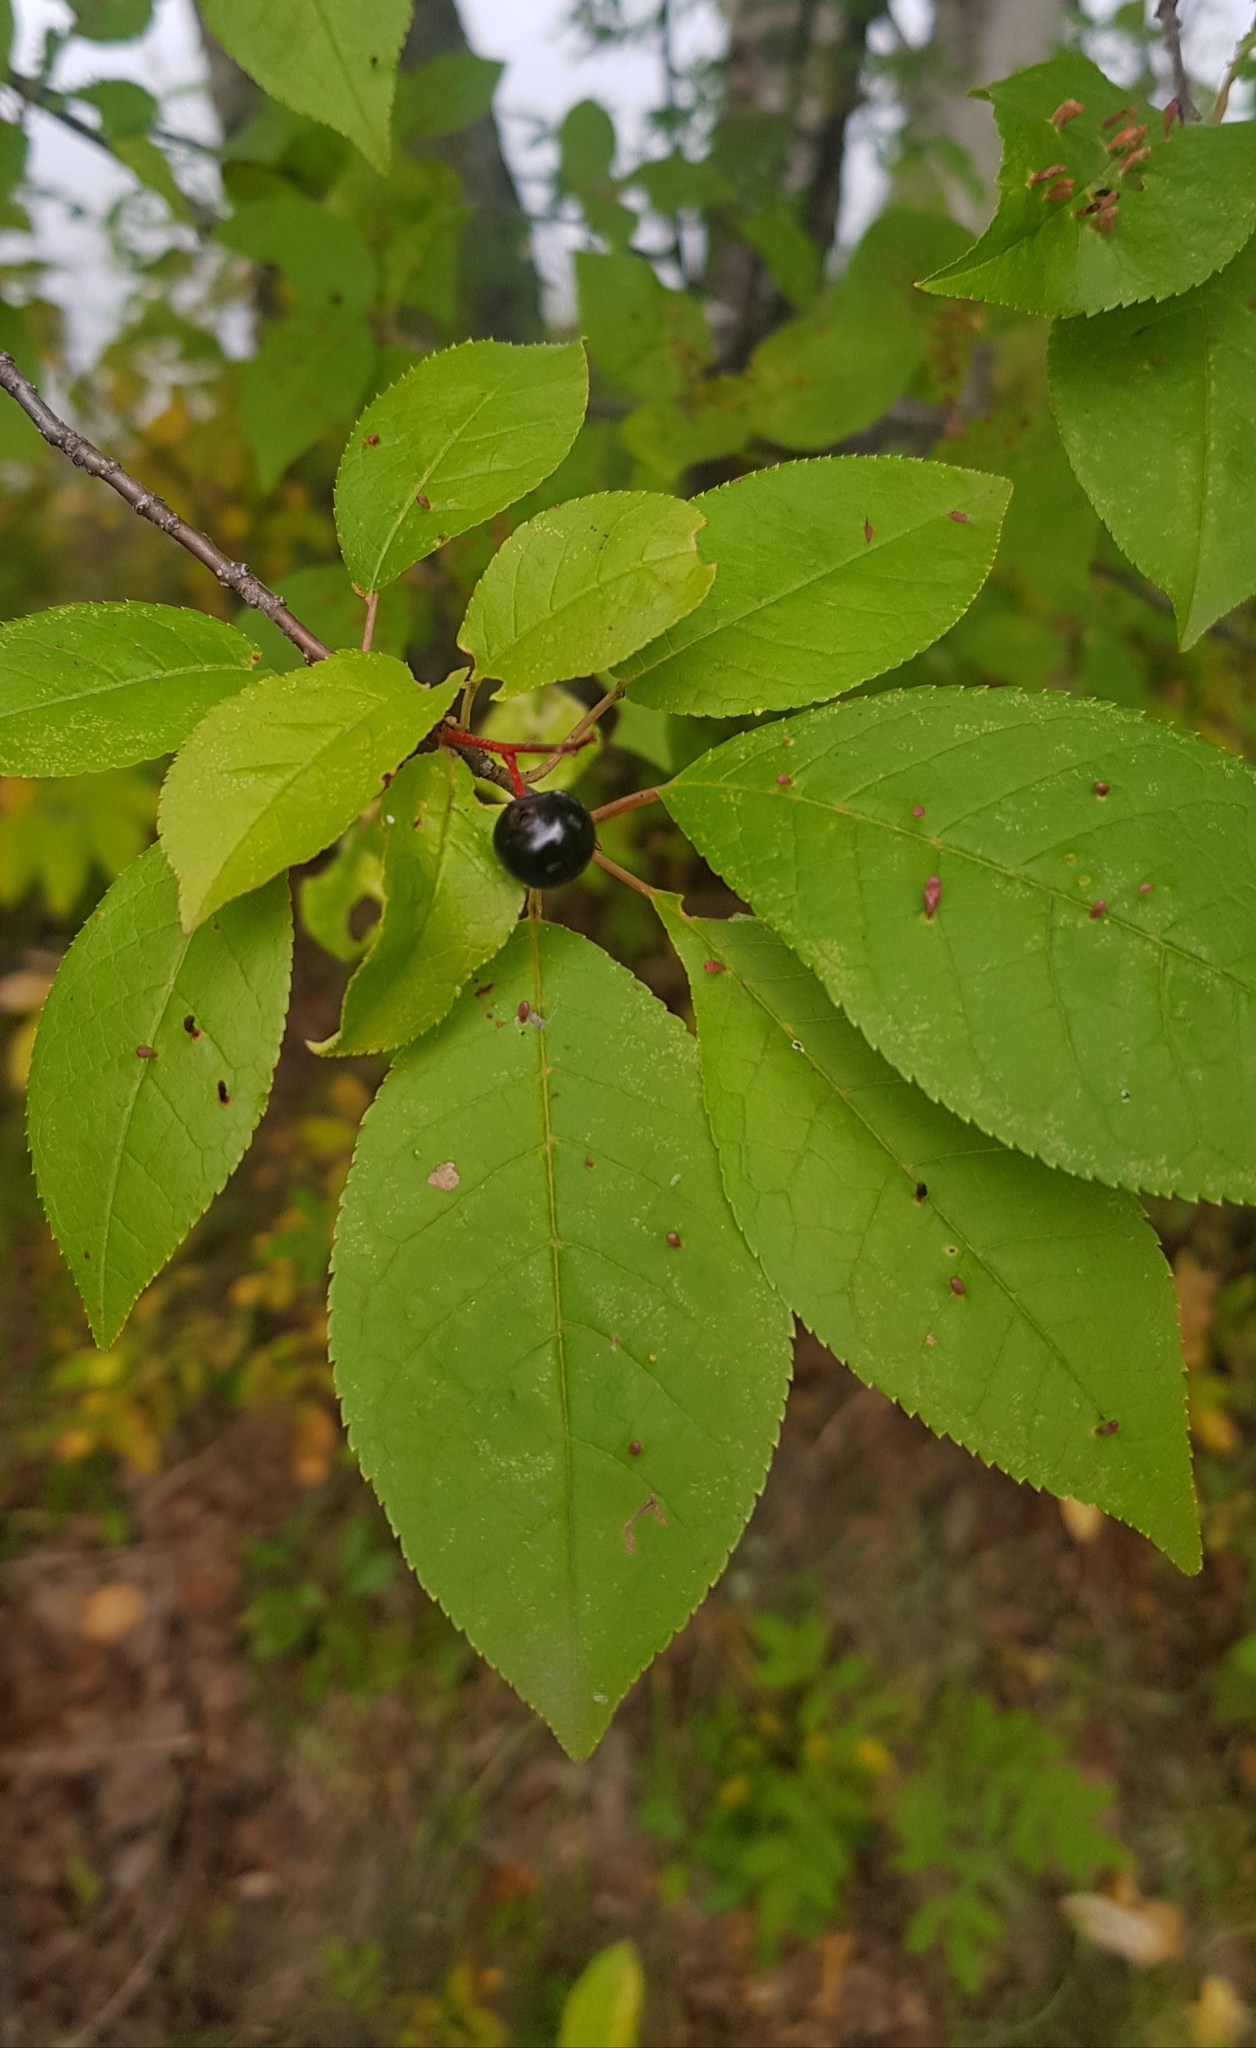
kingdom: Plantae
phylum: Tracheophyta
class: Magnoliopsida
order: Rosales
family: Rosaceae
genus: Prunus
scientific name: Prunus padus
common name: Bird cherry
